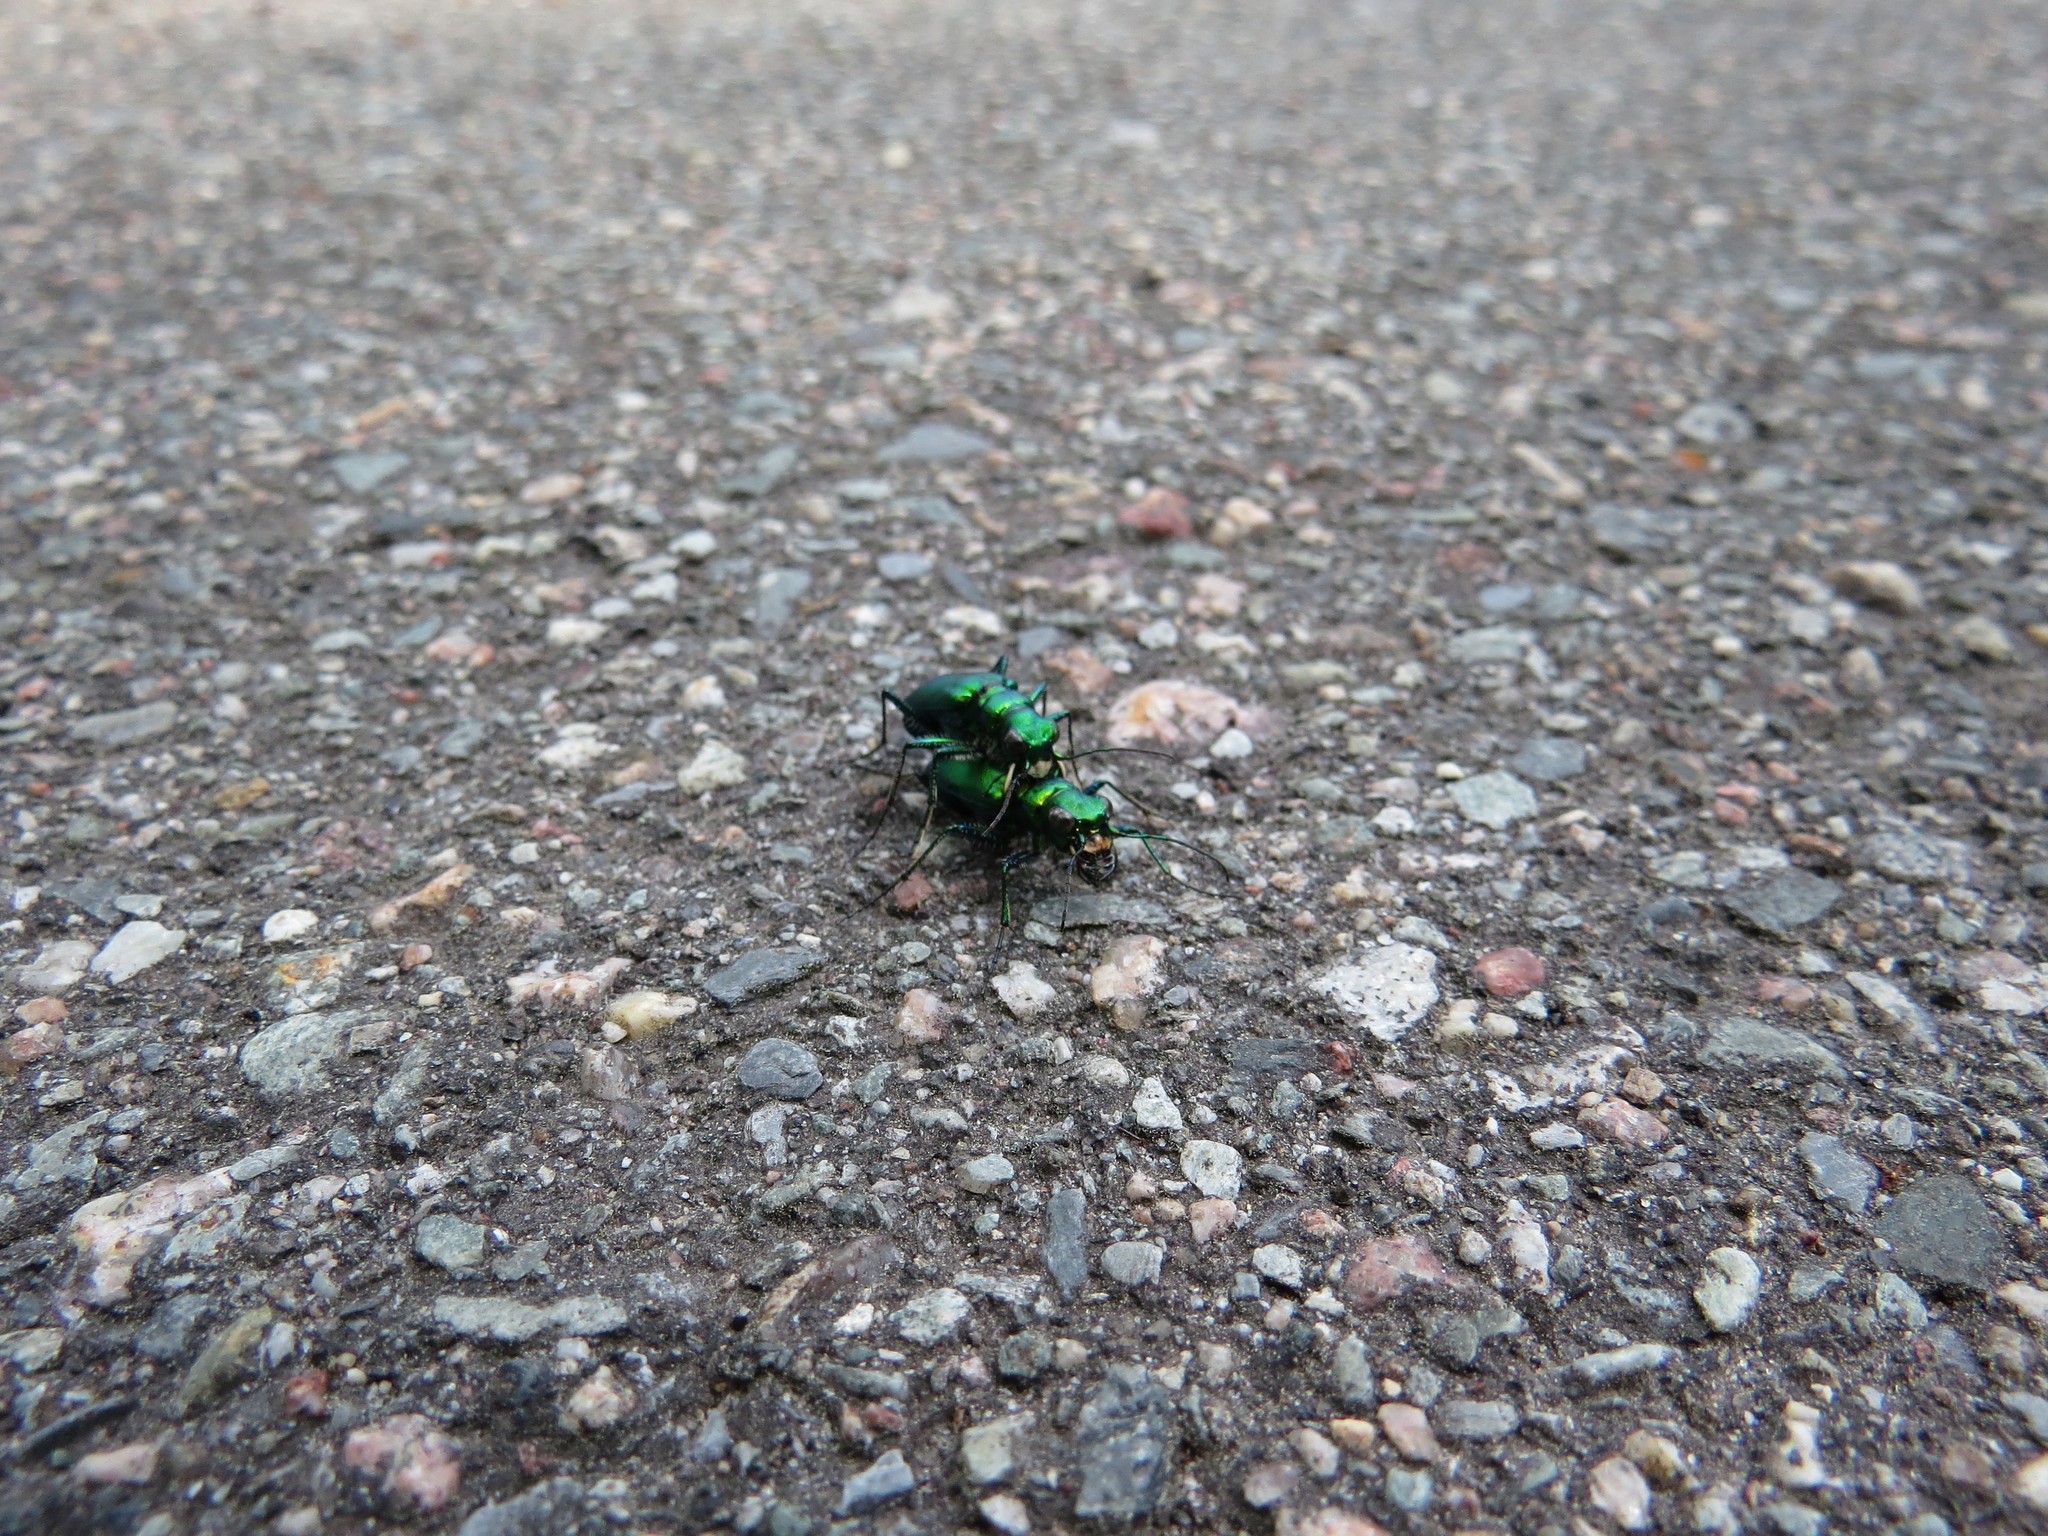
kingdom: Animalia
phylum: Arthropoda
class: Insecta
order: Coleoptera
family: Carabidae
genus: Cicindela
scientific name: Cicindela denikei
